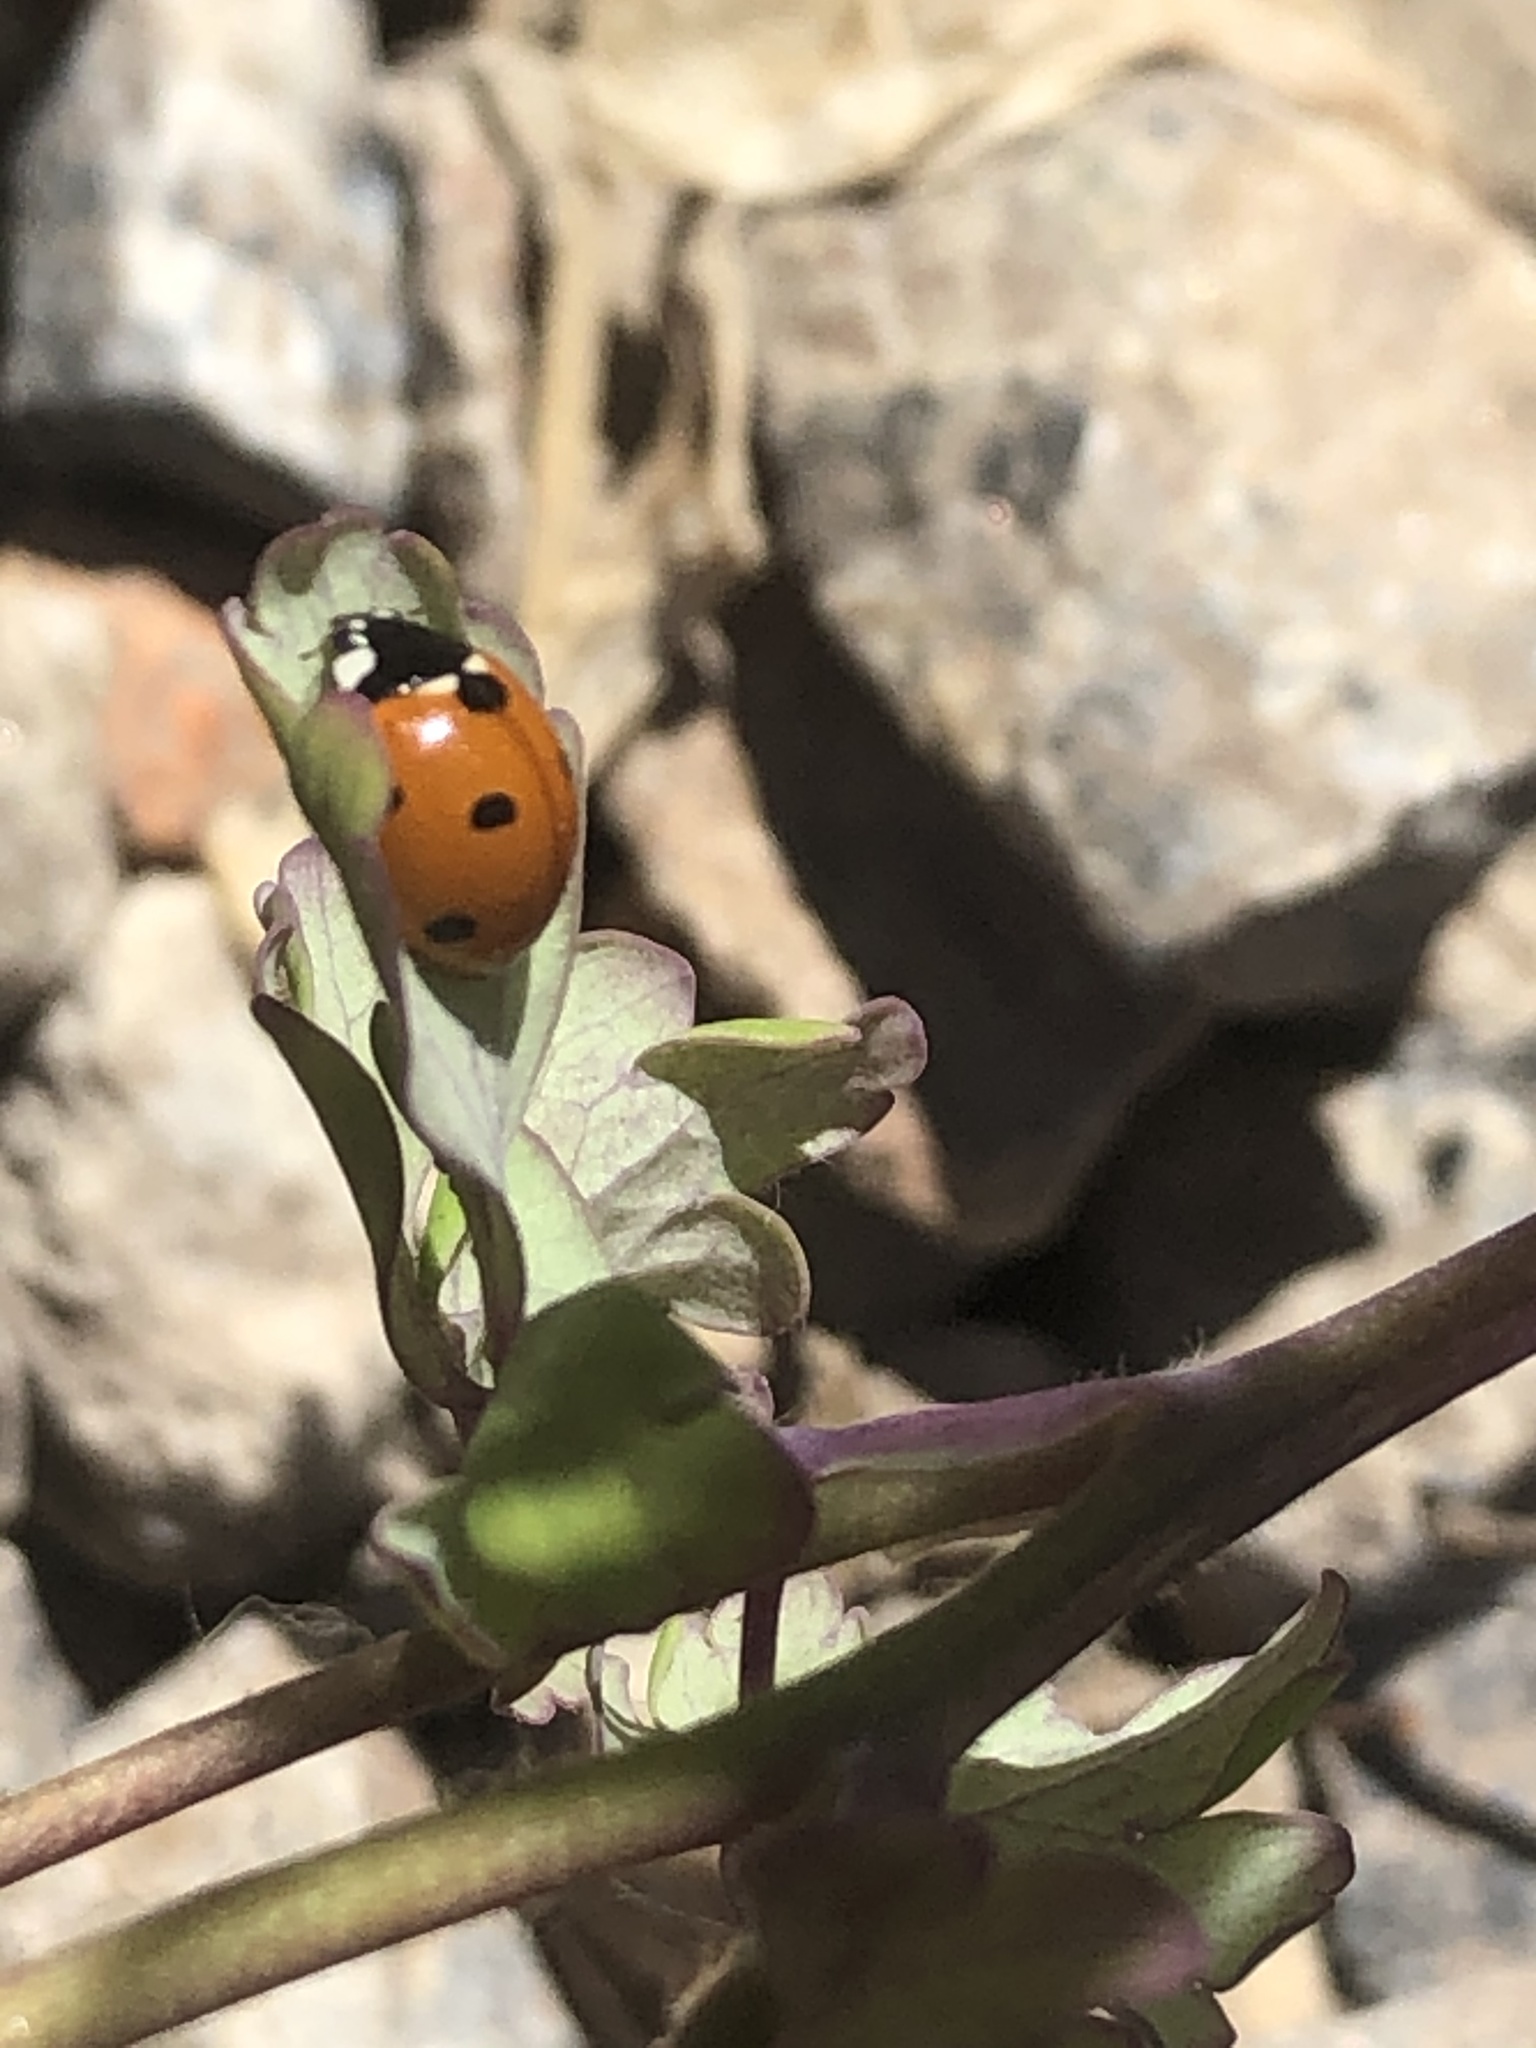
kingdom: Animalia
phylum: Arthropoda
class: Insecta
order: Coleoptera
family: Coccinellidae
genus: Coccinella
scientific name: Coccinella septempunctata
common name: Sevenspotted lady beetle
